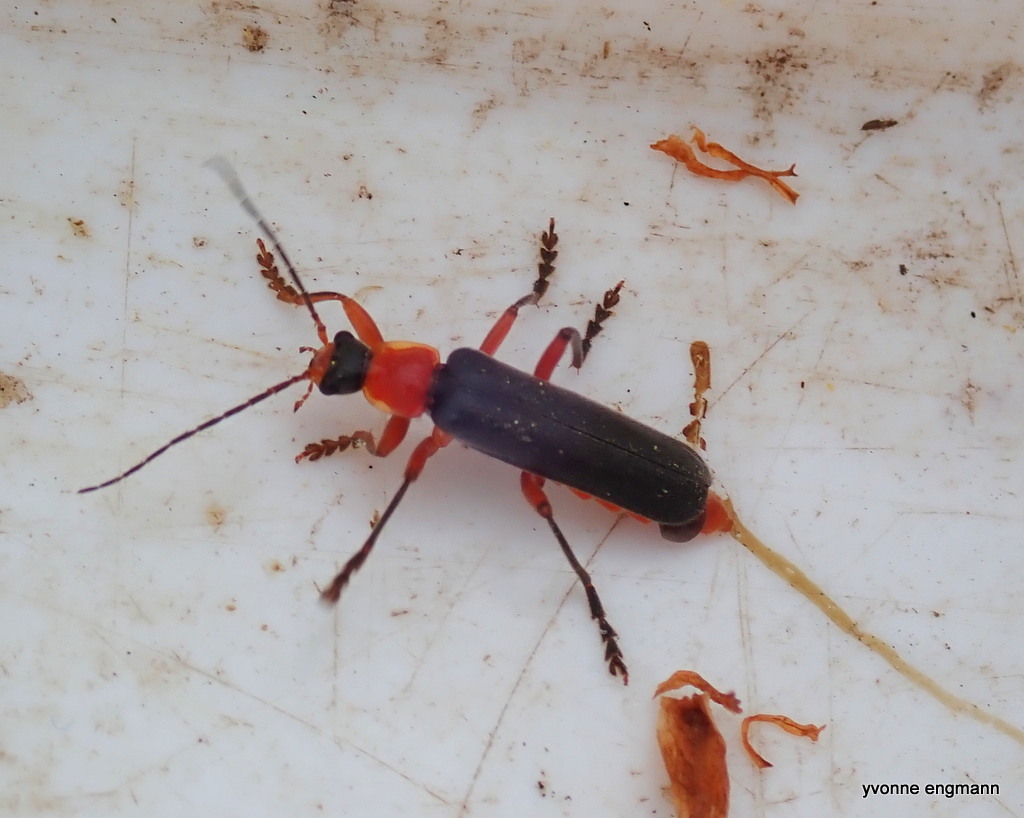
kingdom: Animalia
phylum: Arthropoda
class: Insecta
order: Coleoptera
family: Cantharidae
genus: Cantharis
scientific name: Cantharis pellucida
